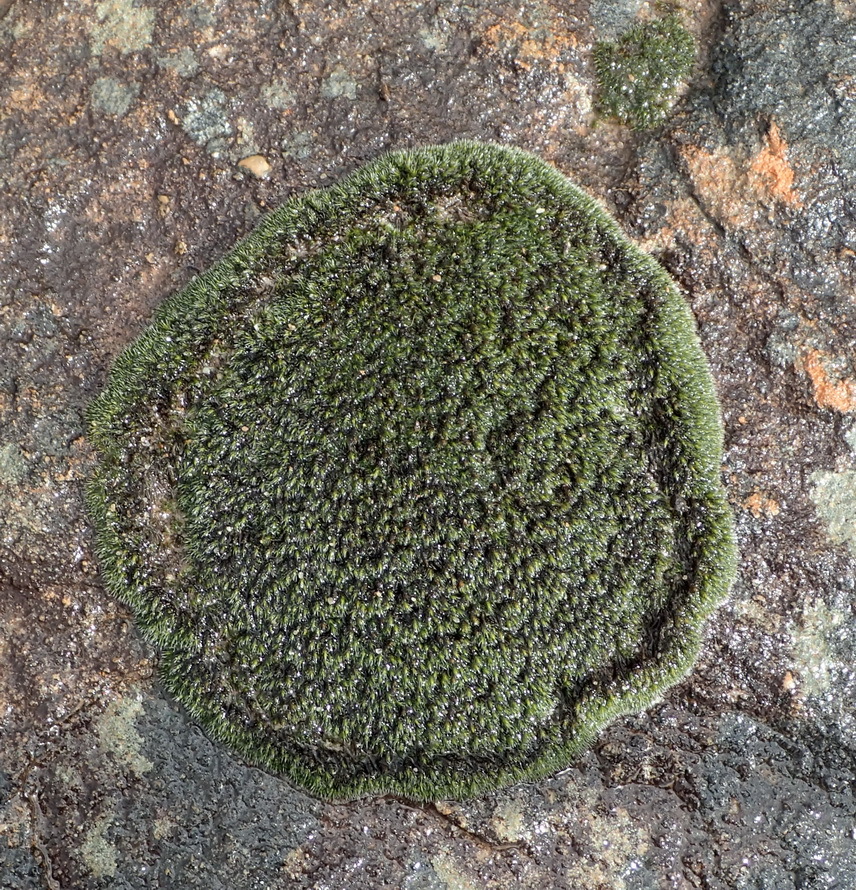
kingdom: Plantae
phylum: Bryophyta
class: Bryopsida
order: Grimmiales
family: Grimmiaceae
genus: Grimmia
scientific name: Grimmia laevigata
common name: Hoary grimmia
